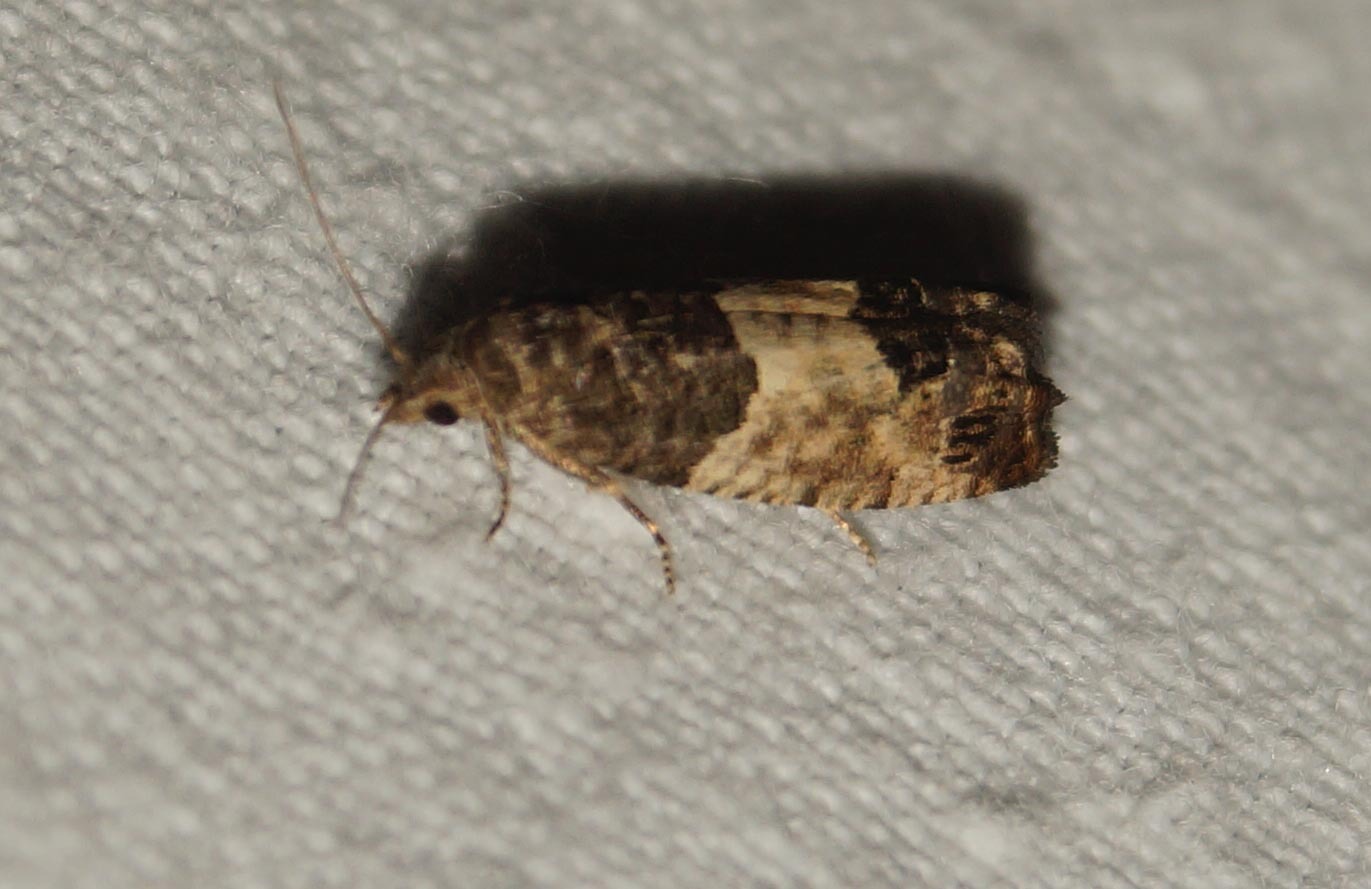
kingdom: Animalia
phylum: Arthropoda
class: Insecta
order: Lepidoptera
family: Tortricidae
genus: Spilonota
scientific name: Spilonota ocellana
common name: Bud moth
